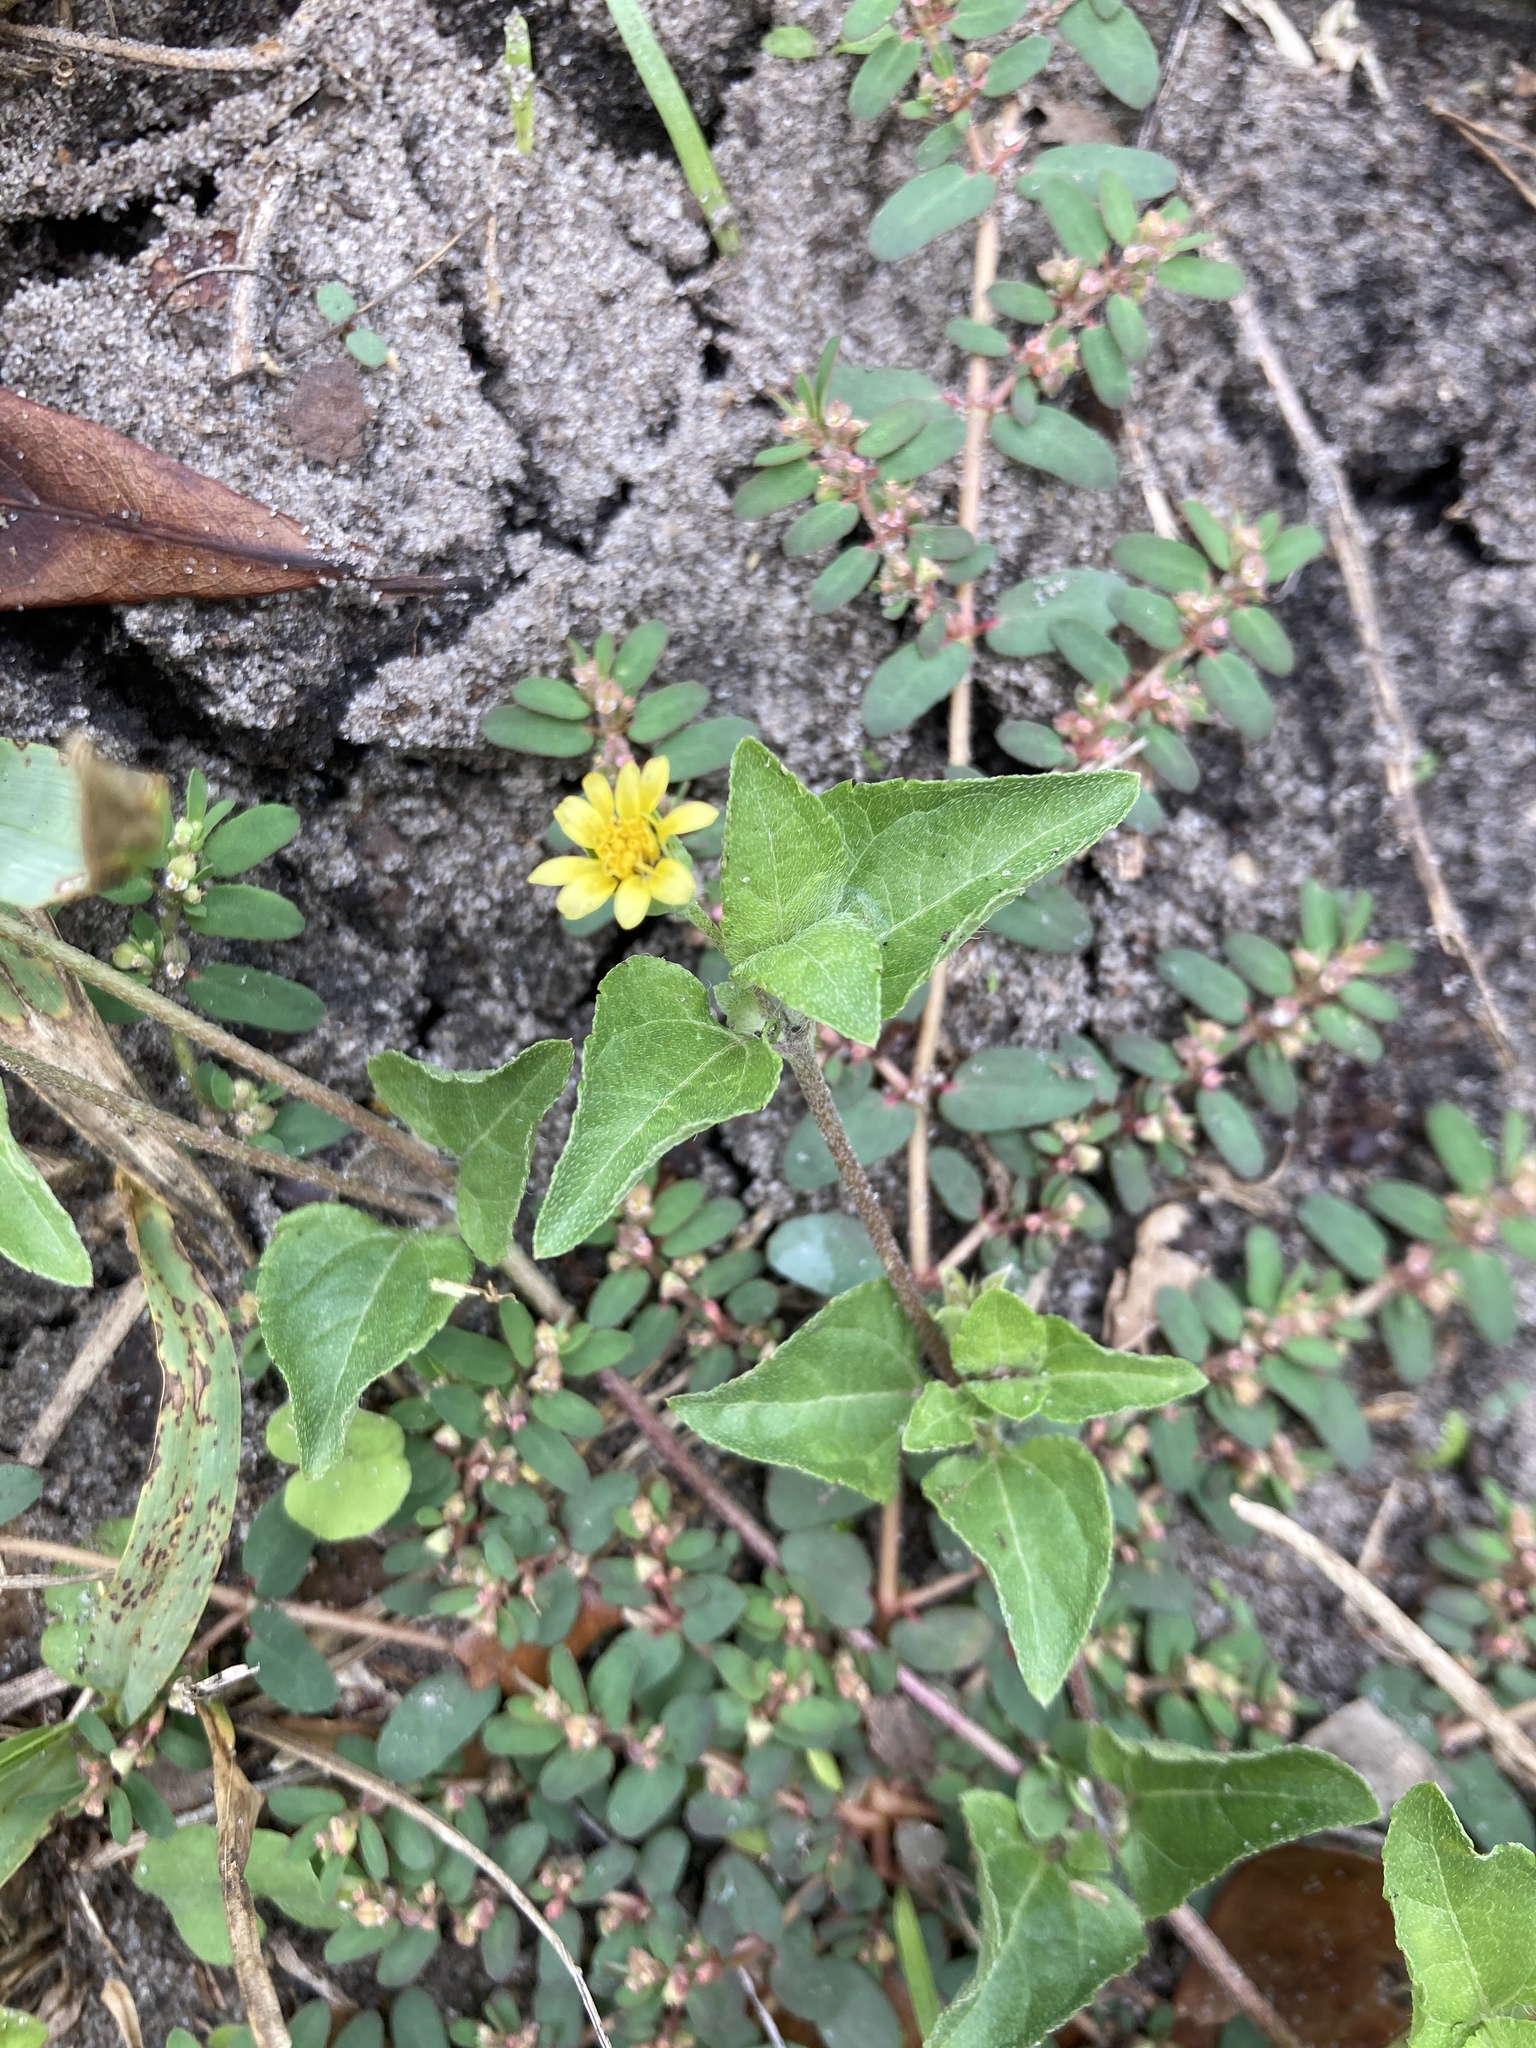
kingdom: Plantae
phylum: Tracheophyta
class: Magnoliopsida
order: Asterales
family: Asteraceae
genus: Calyptocarpus
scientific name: Calyptocarpus vialis
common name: Straggler daisy
